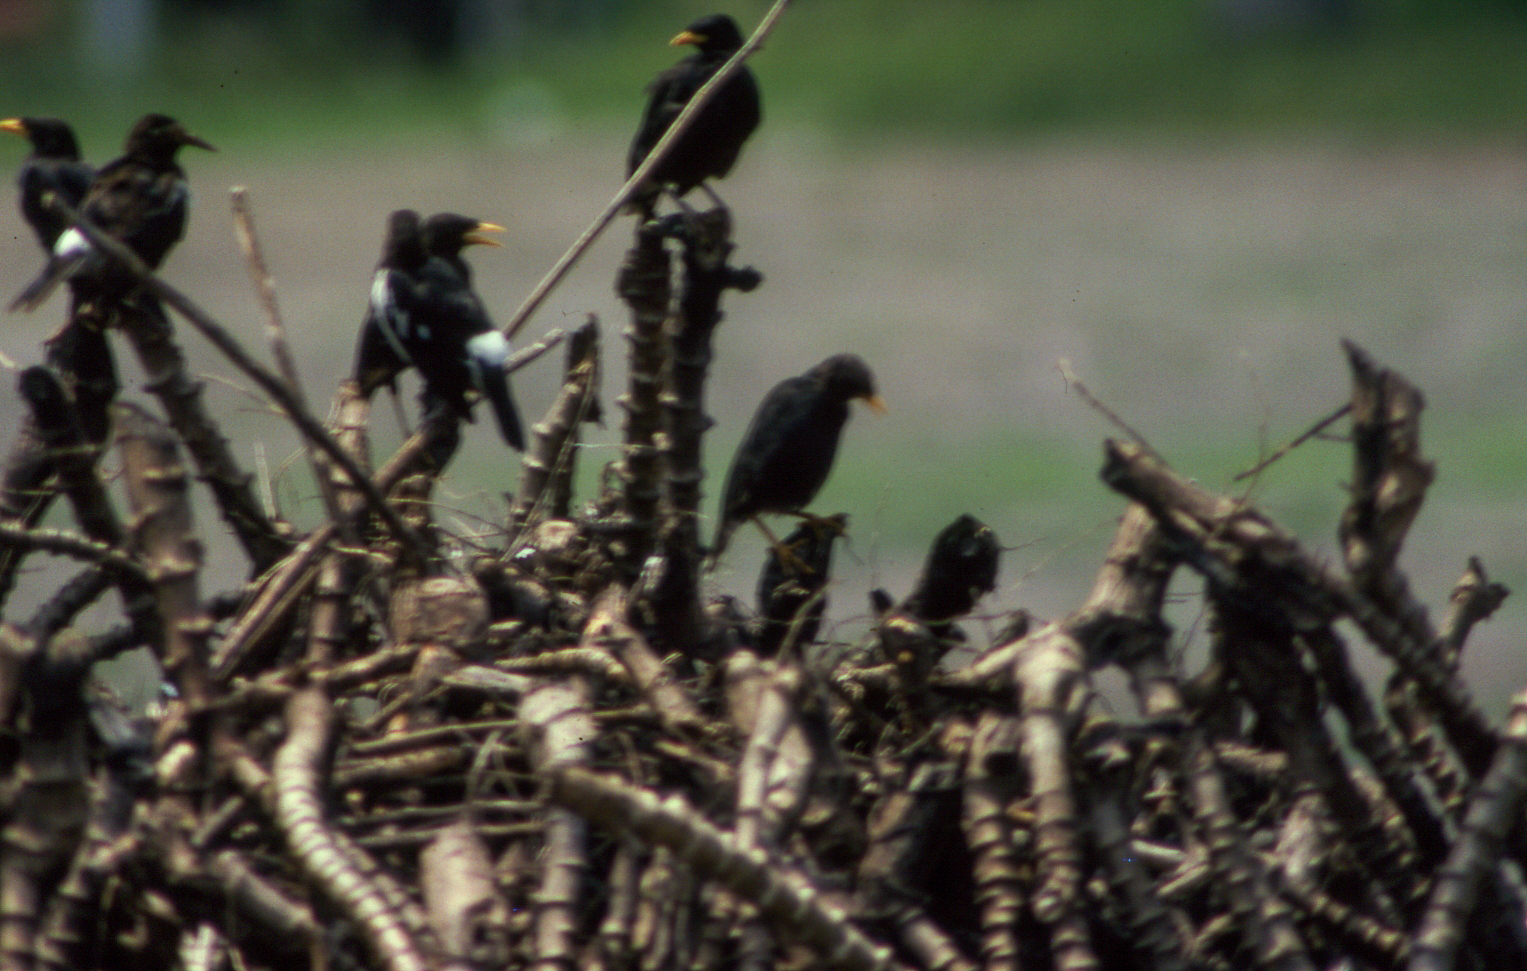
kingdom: Animalia
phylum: Chordata
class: Aves
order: Passeriformes
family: Sturnidae
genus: Acridotheres
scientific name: Acridotheres grandis
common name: Great myna
